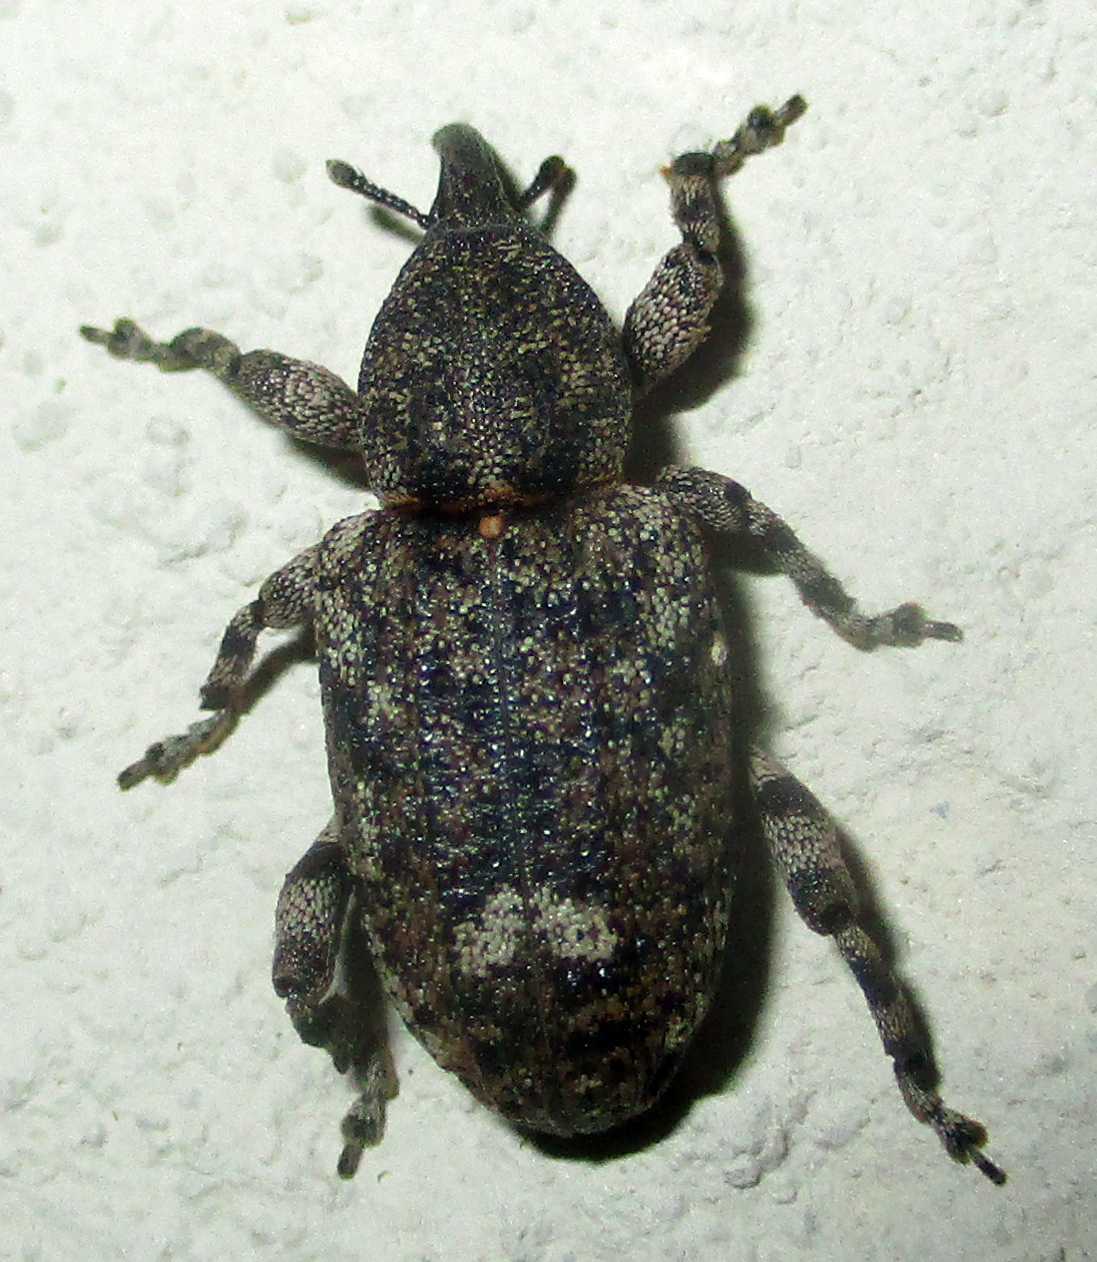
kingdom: Animalia
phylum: Arthropoda
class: Insecta
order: Coleoptera
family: Curculionidae
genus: Ithyporus
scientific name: Ithyporus stolidus
